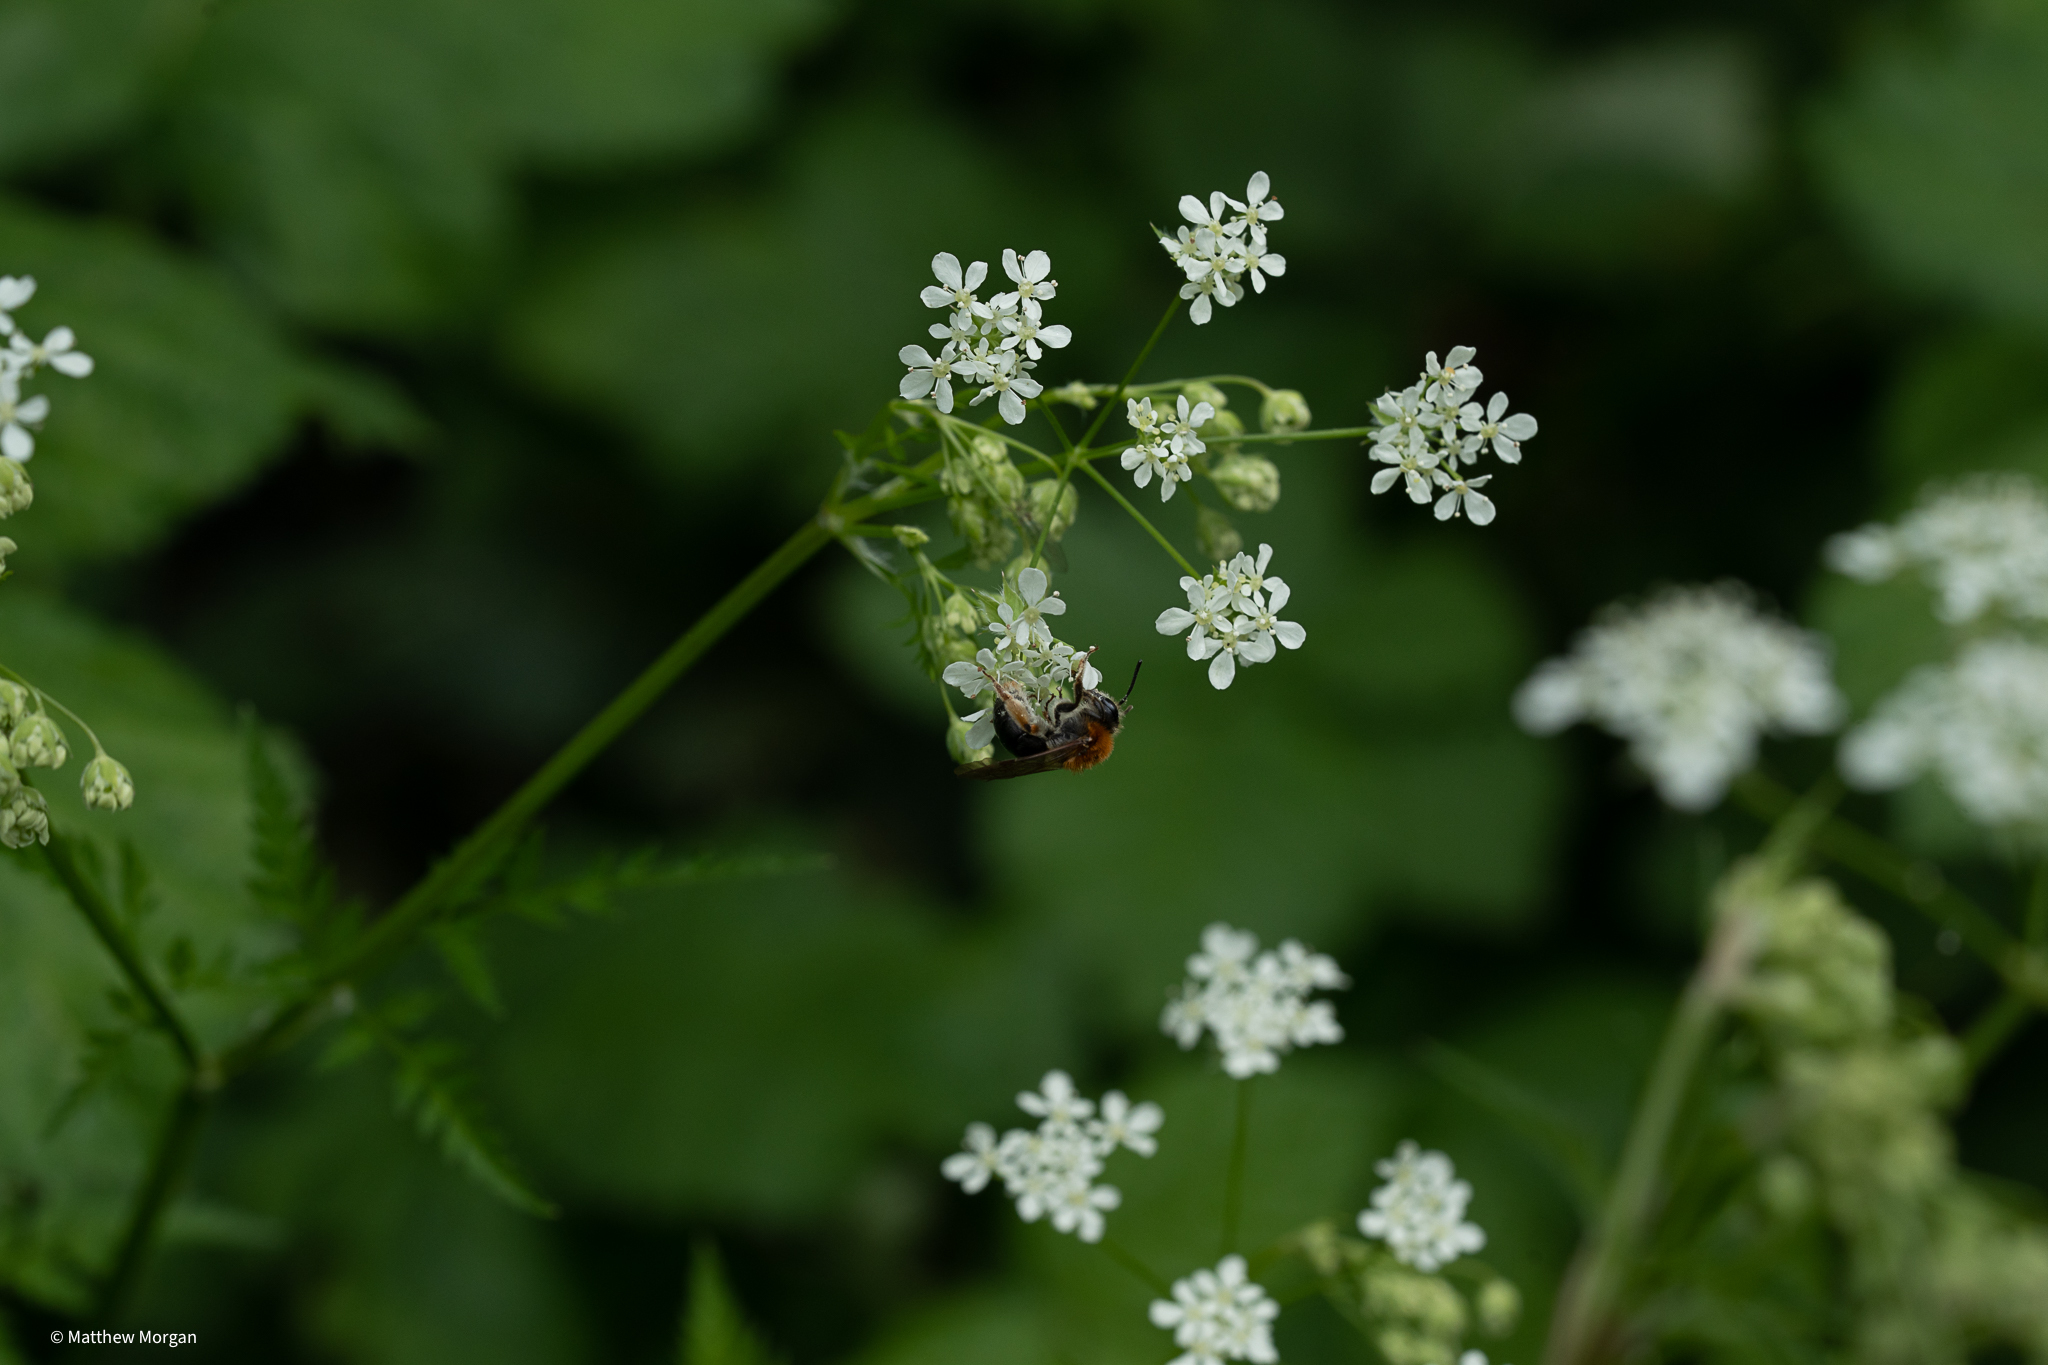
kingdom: Animalia
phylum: Arthropoda
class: Insecta
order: Hymenoptera
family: Andrenidae
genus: Andrena
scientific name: Andrena haemorrhoa
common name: Early mining bee
